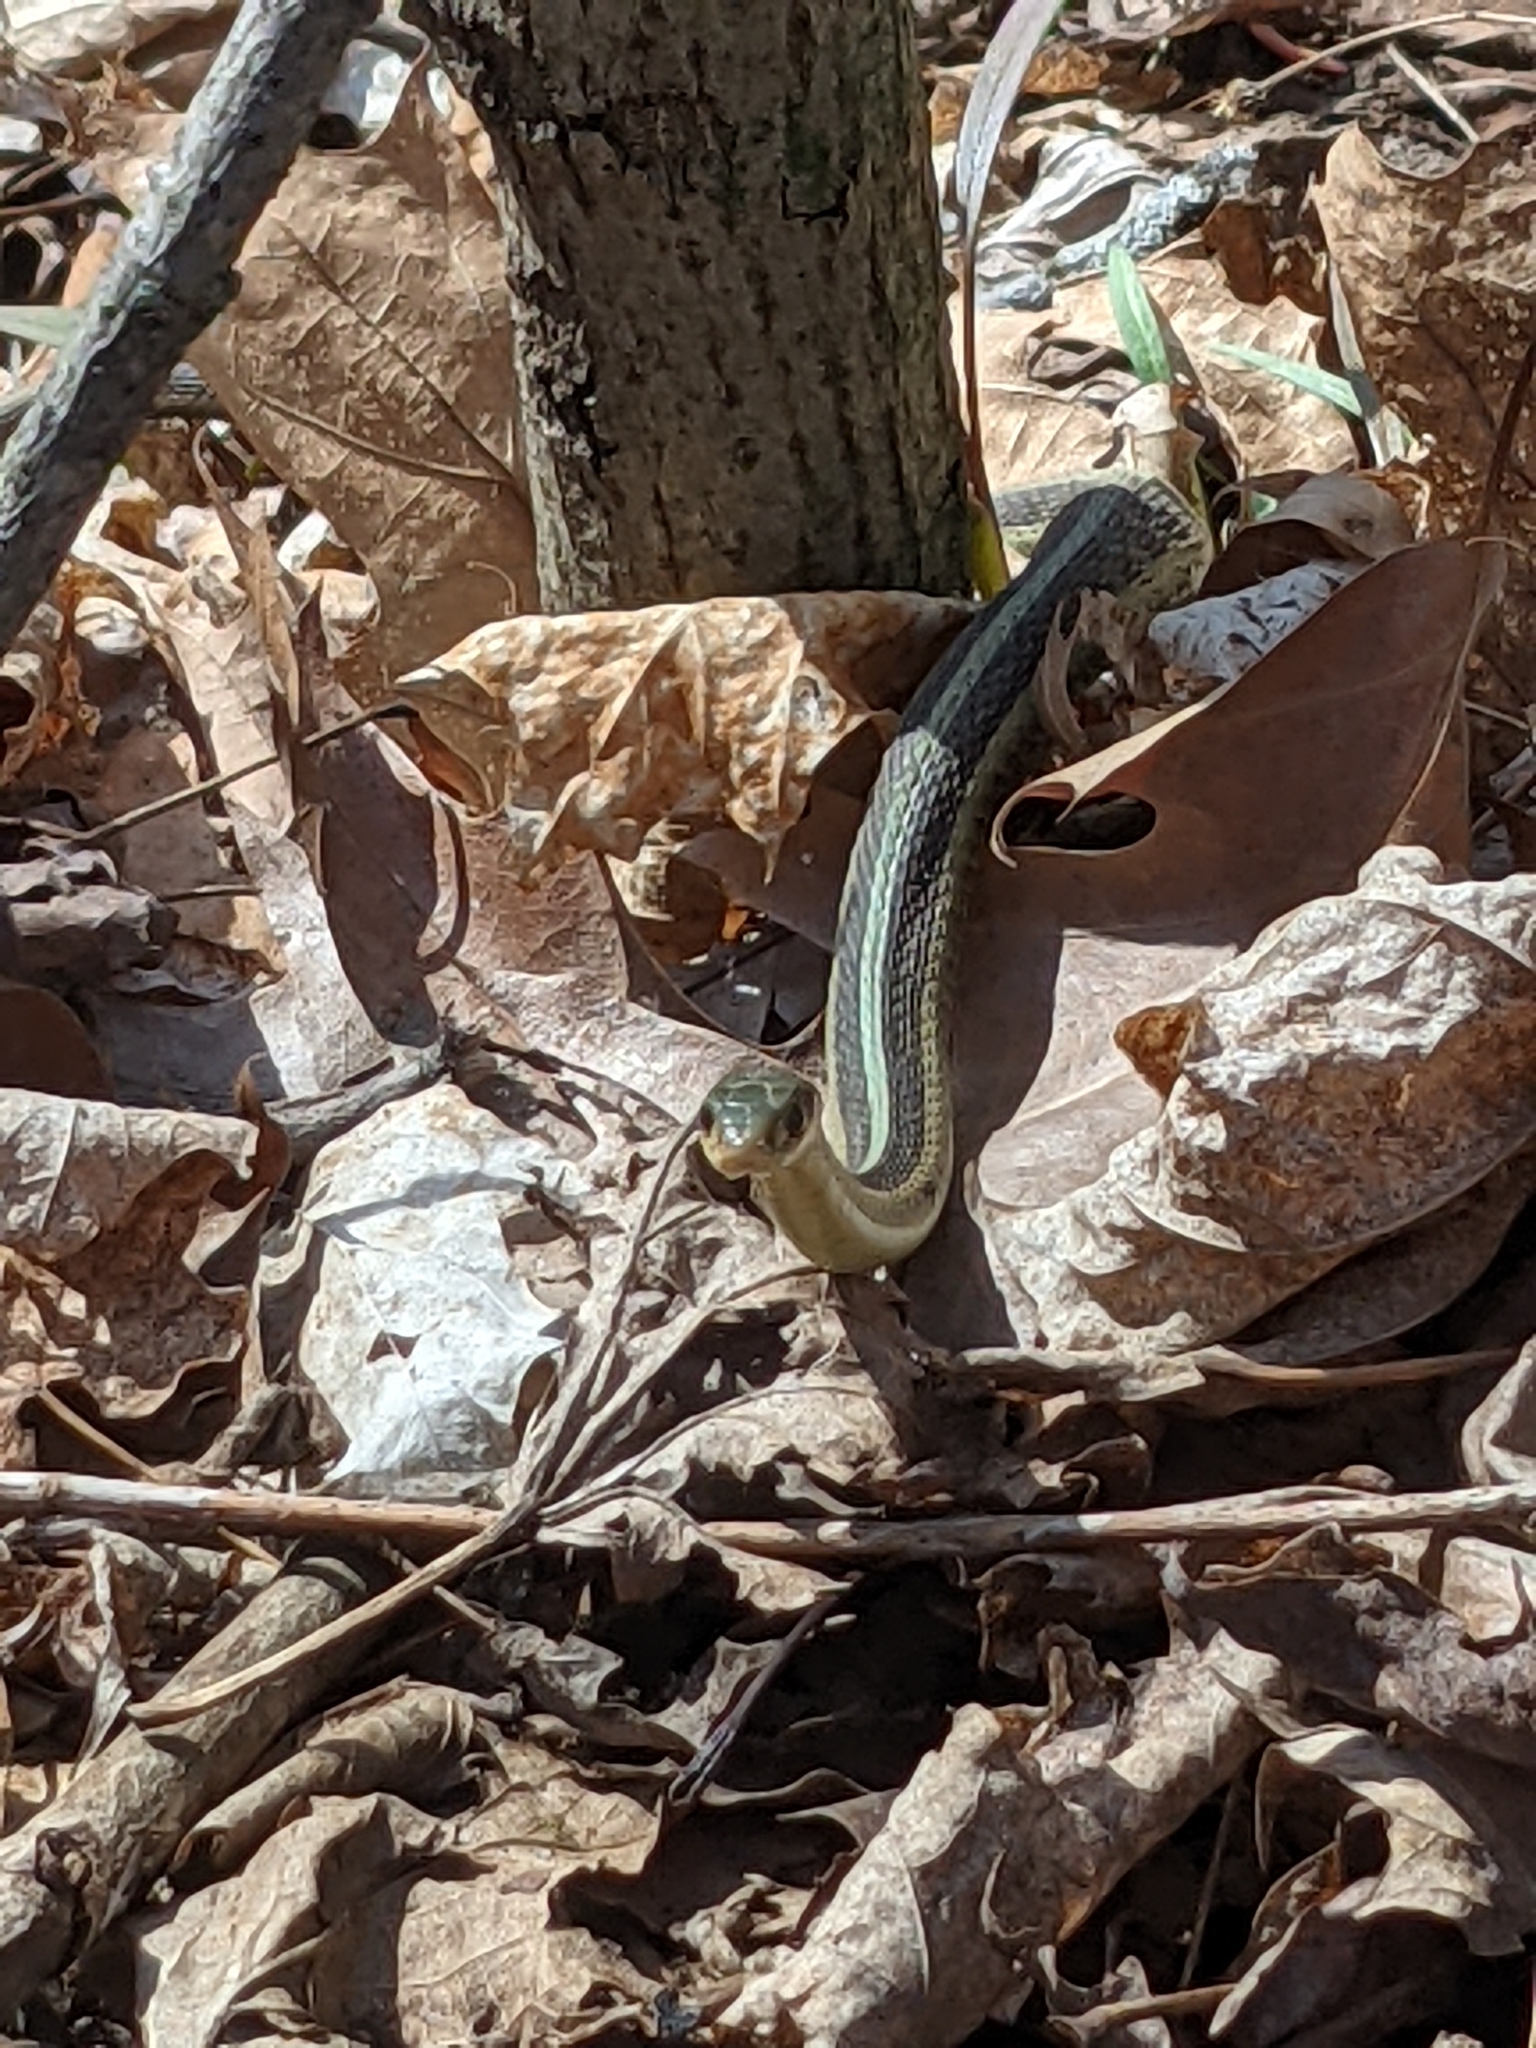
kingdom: Animalia
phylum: Chordata
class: Squamata
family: Colubridae
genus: Thamnophis
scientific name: Thamnophis sirtalis
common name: Common garter snake
